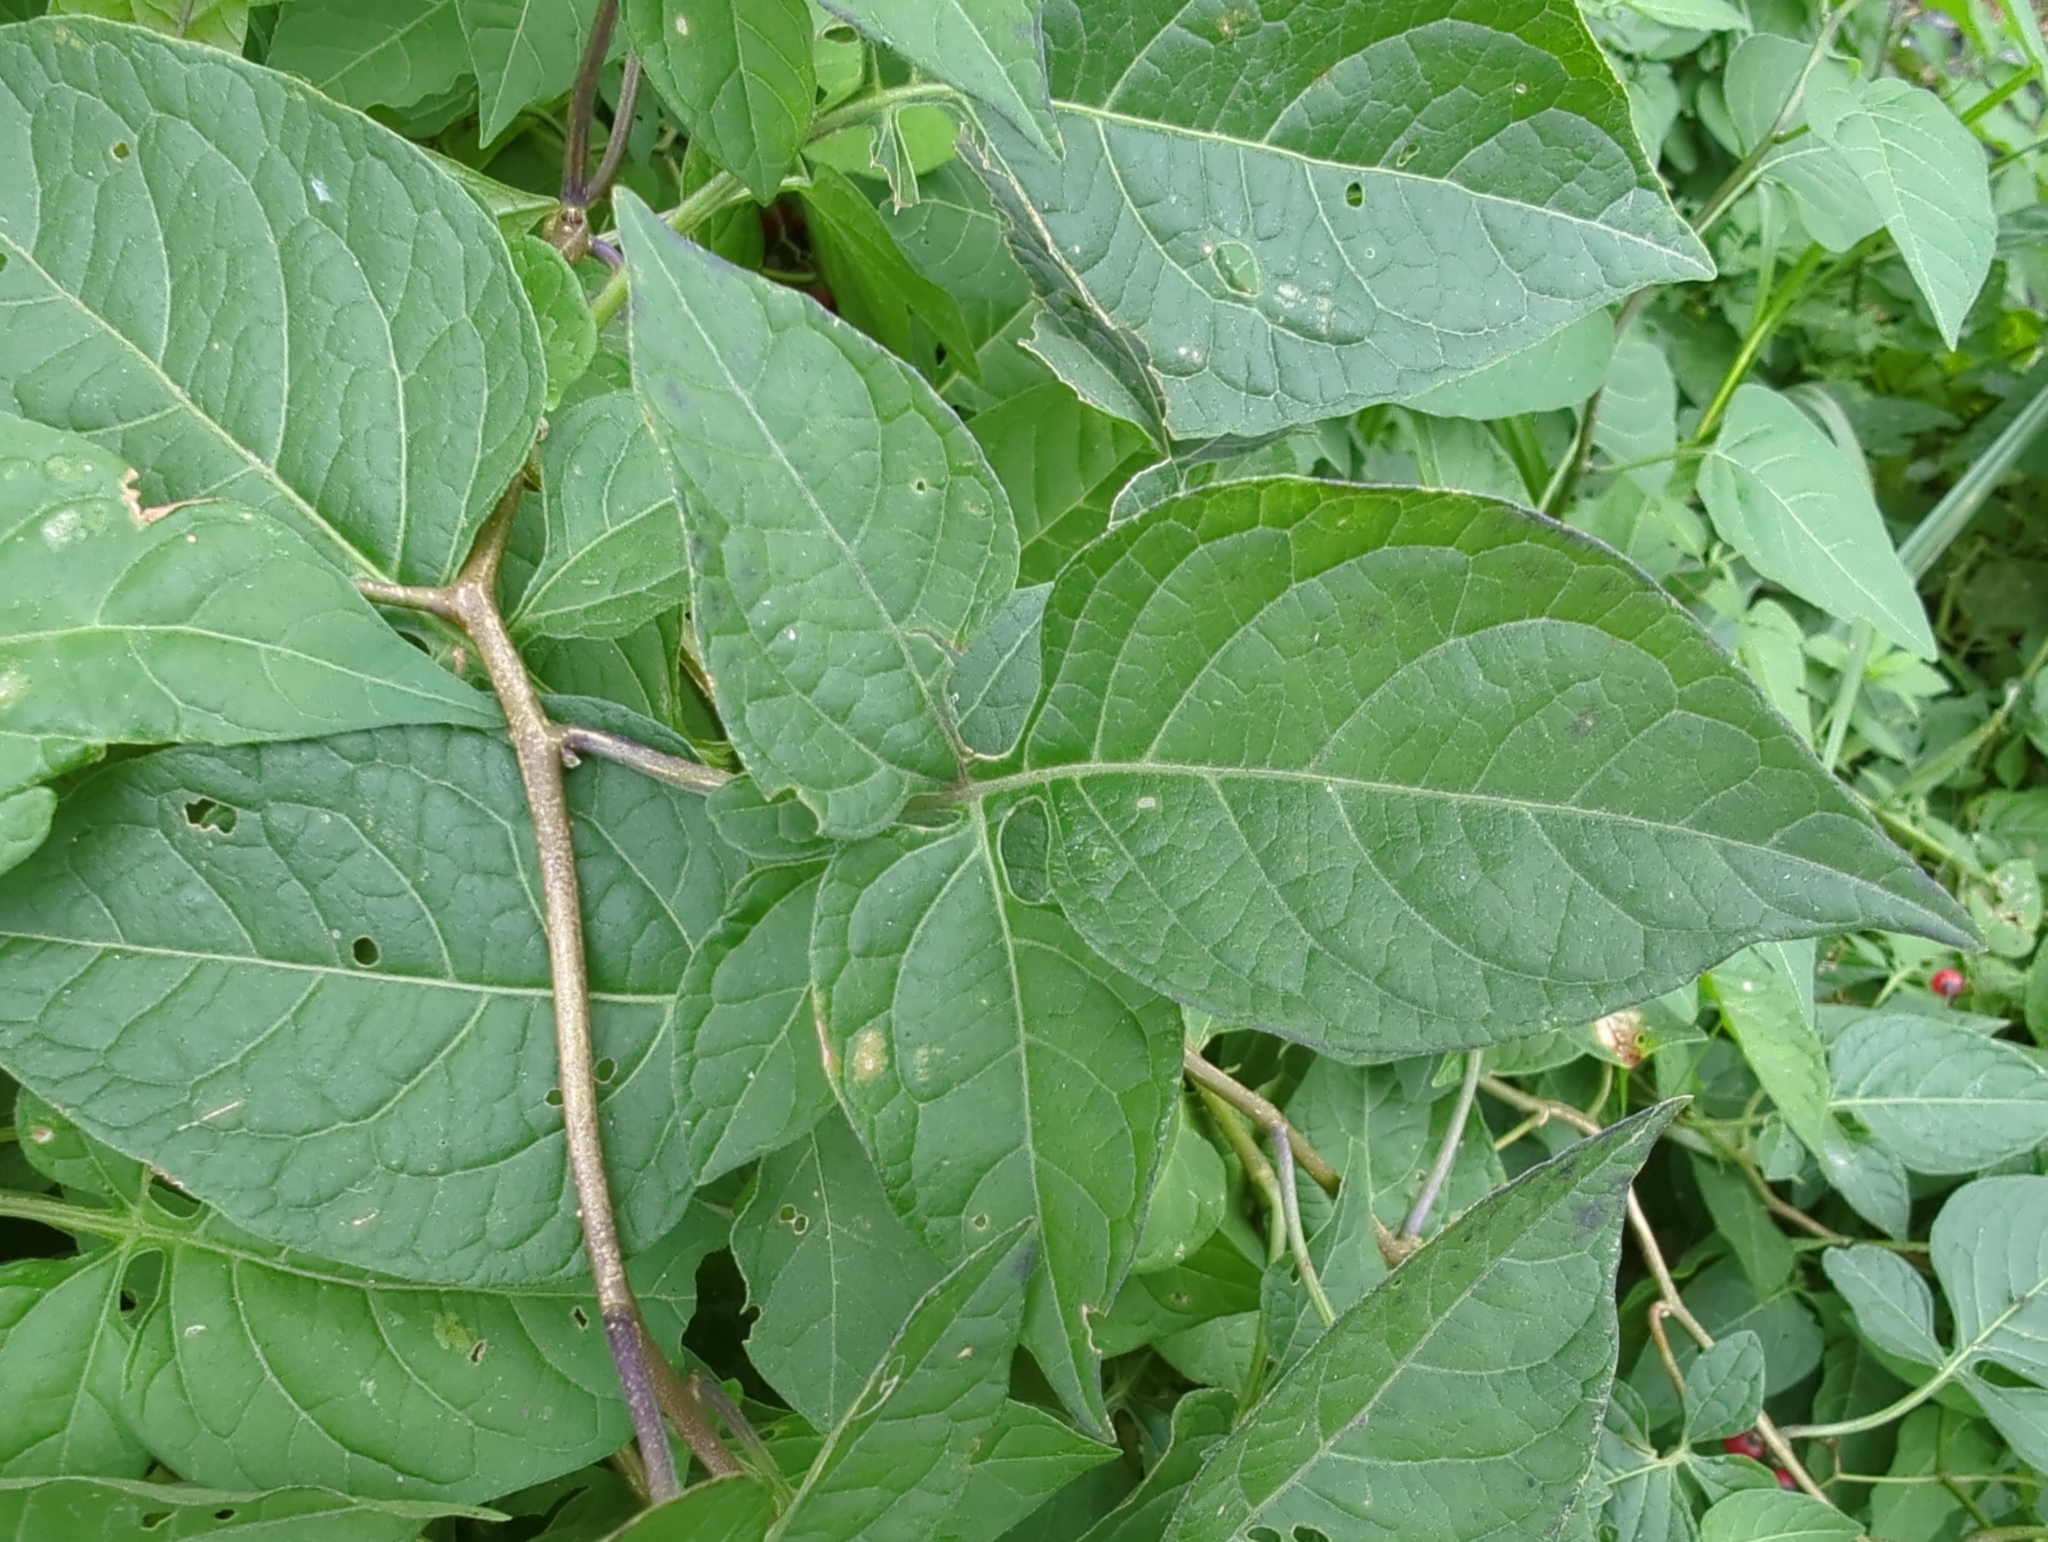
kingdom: Plantae
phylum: Tracheophyta
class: Magnoliopsida
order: Solanales
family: Solanaceae
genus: Solanum
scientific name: Solanum dulcamara
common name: Climbing nightshade
